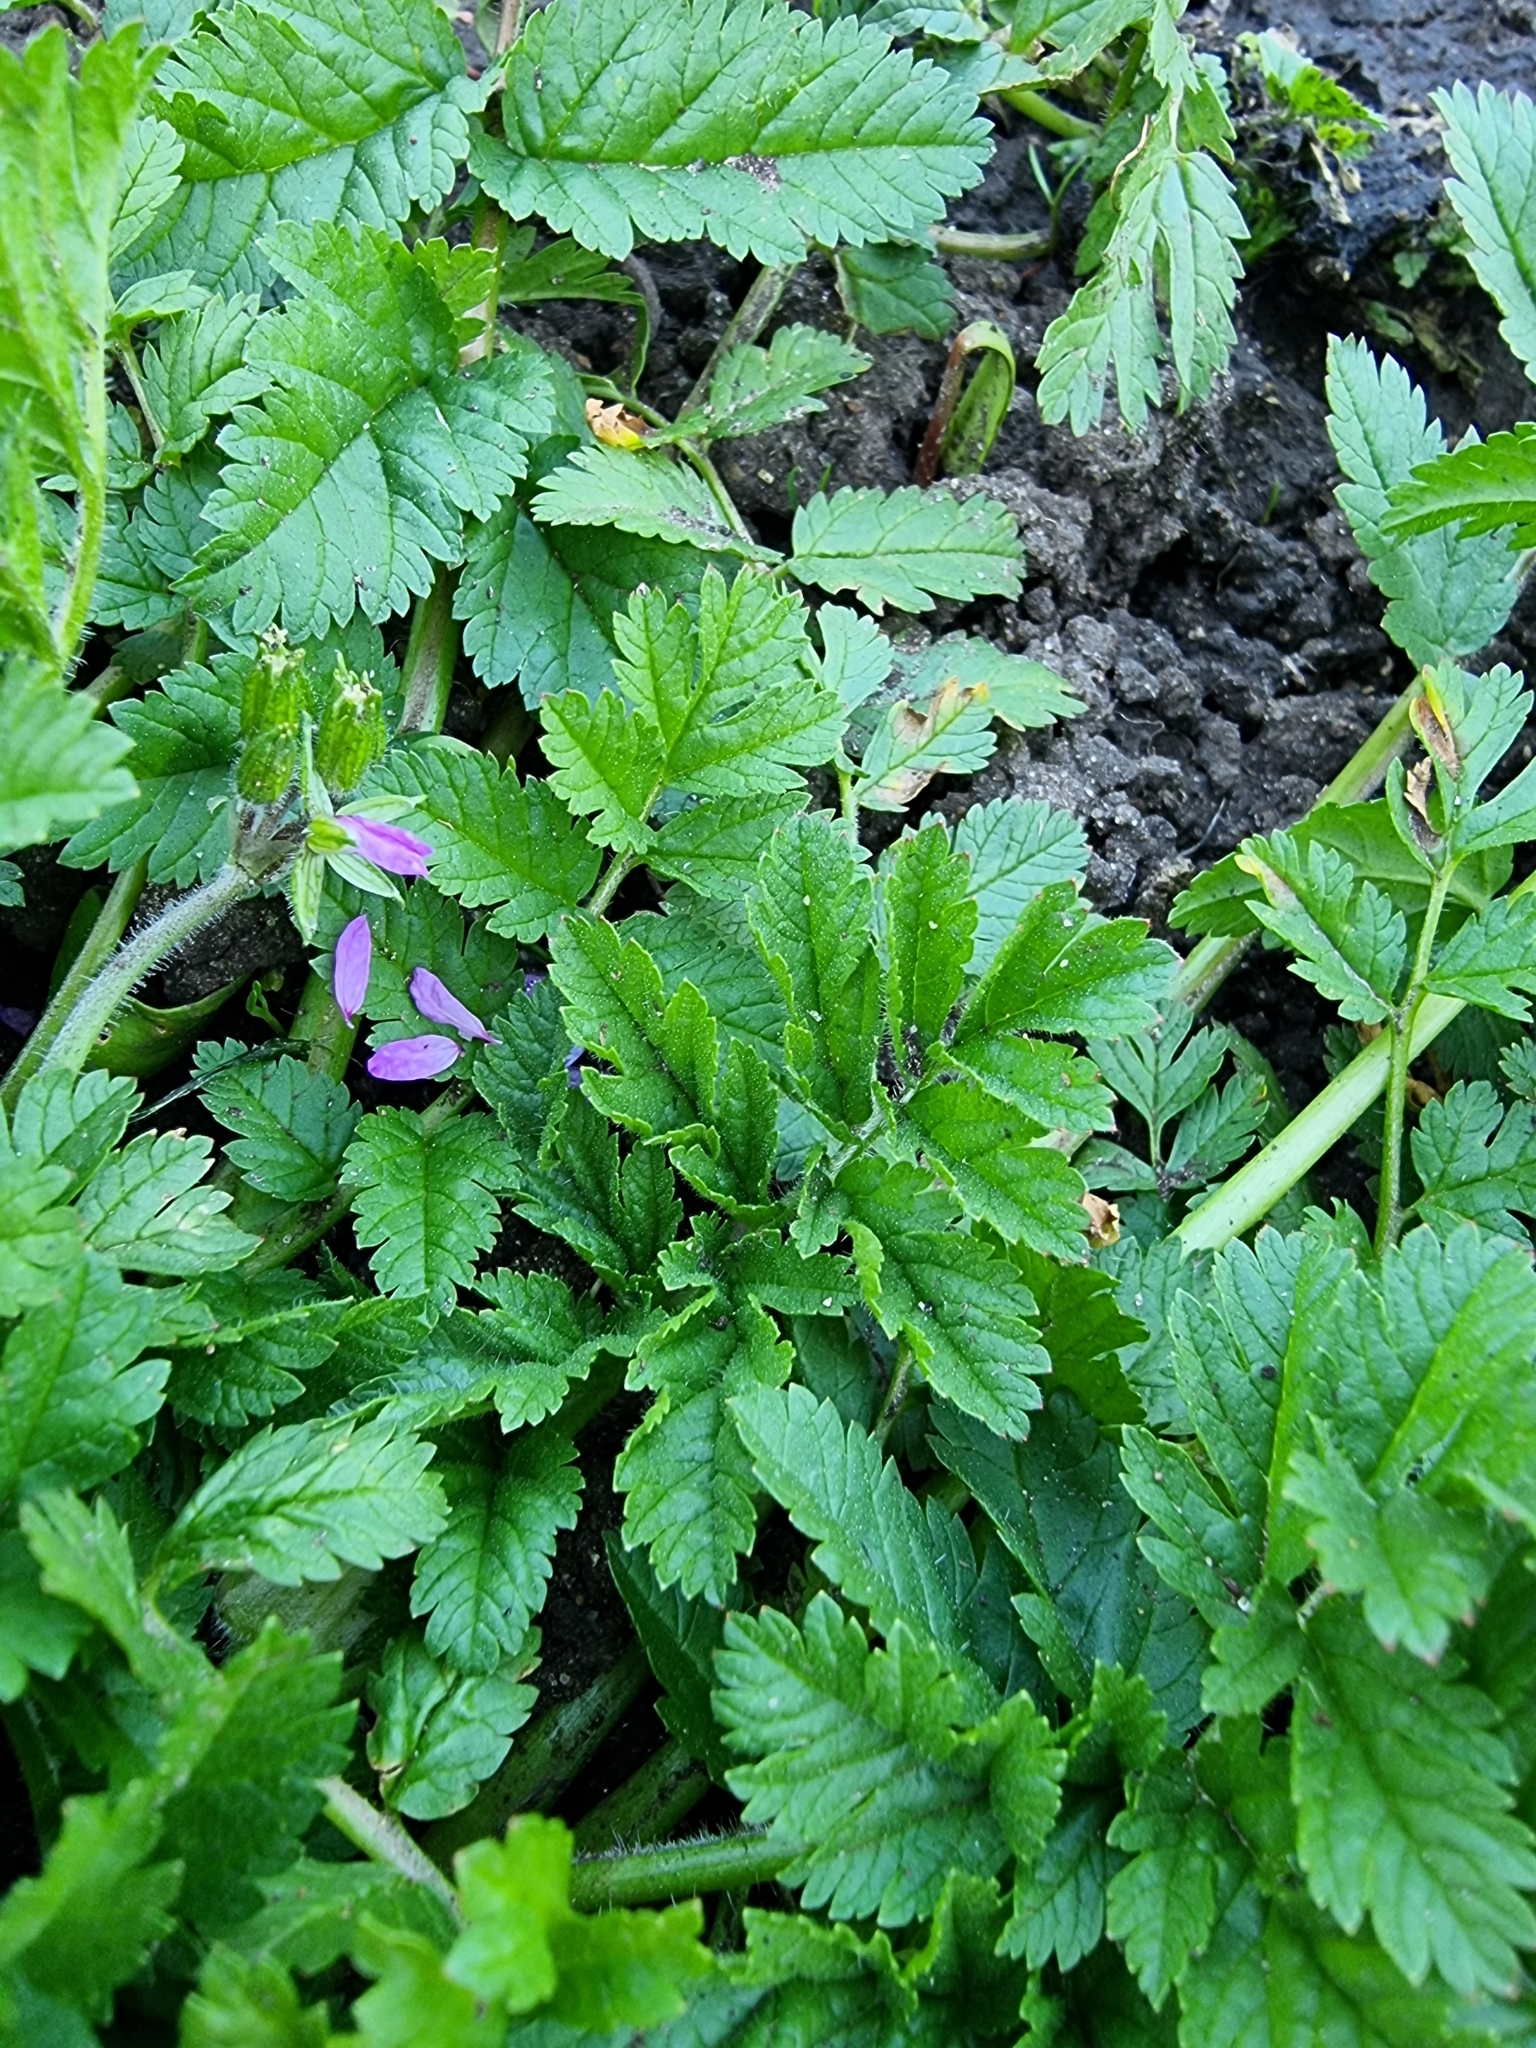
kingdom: Plantae
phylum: Tracheophyta
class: Magnoliopsida
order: Geraniales
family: Geraniaceae
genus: Erodium
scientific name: Erodium moschatum
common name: Musk stork's-bill
